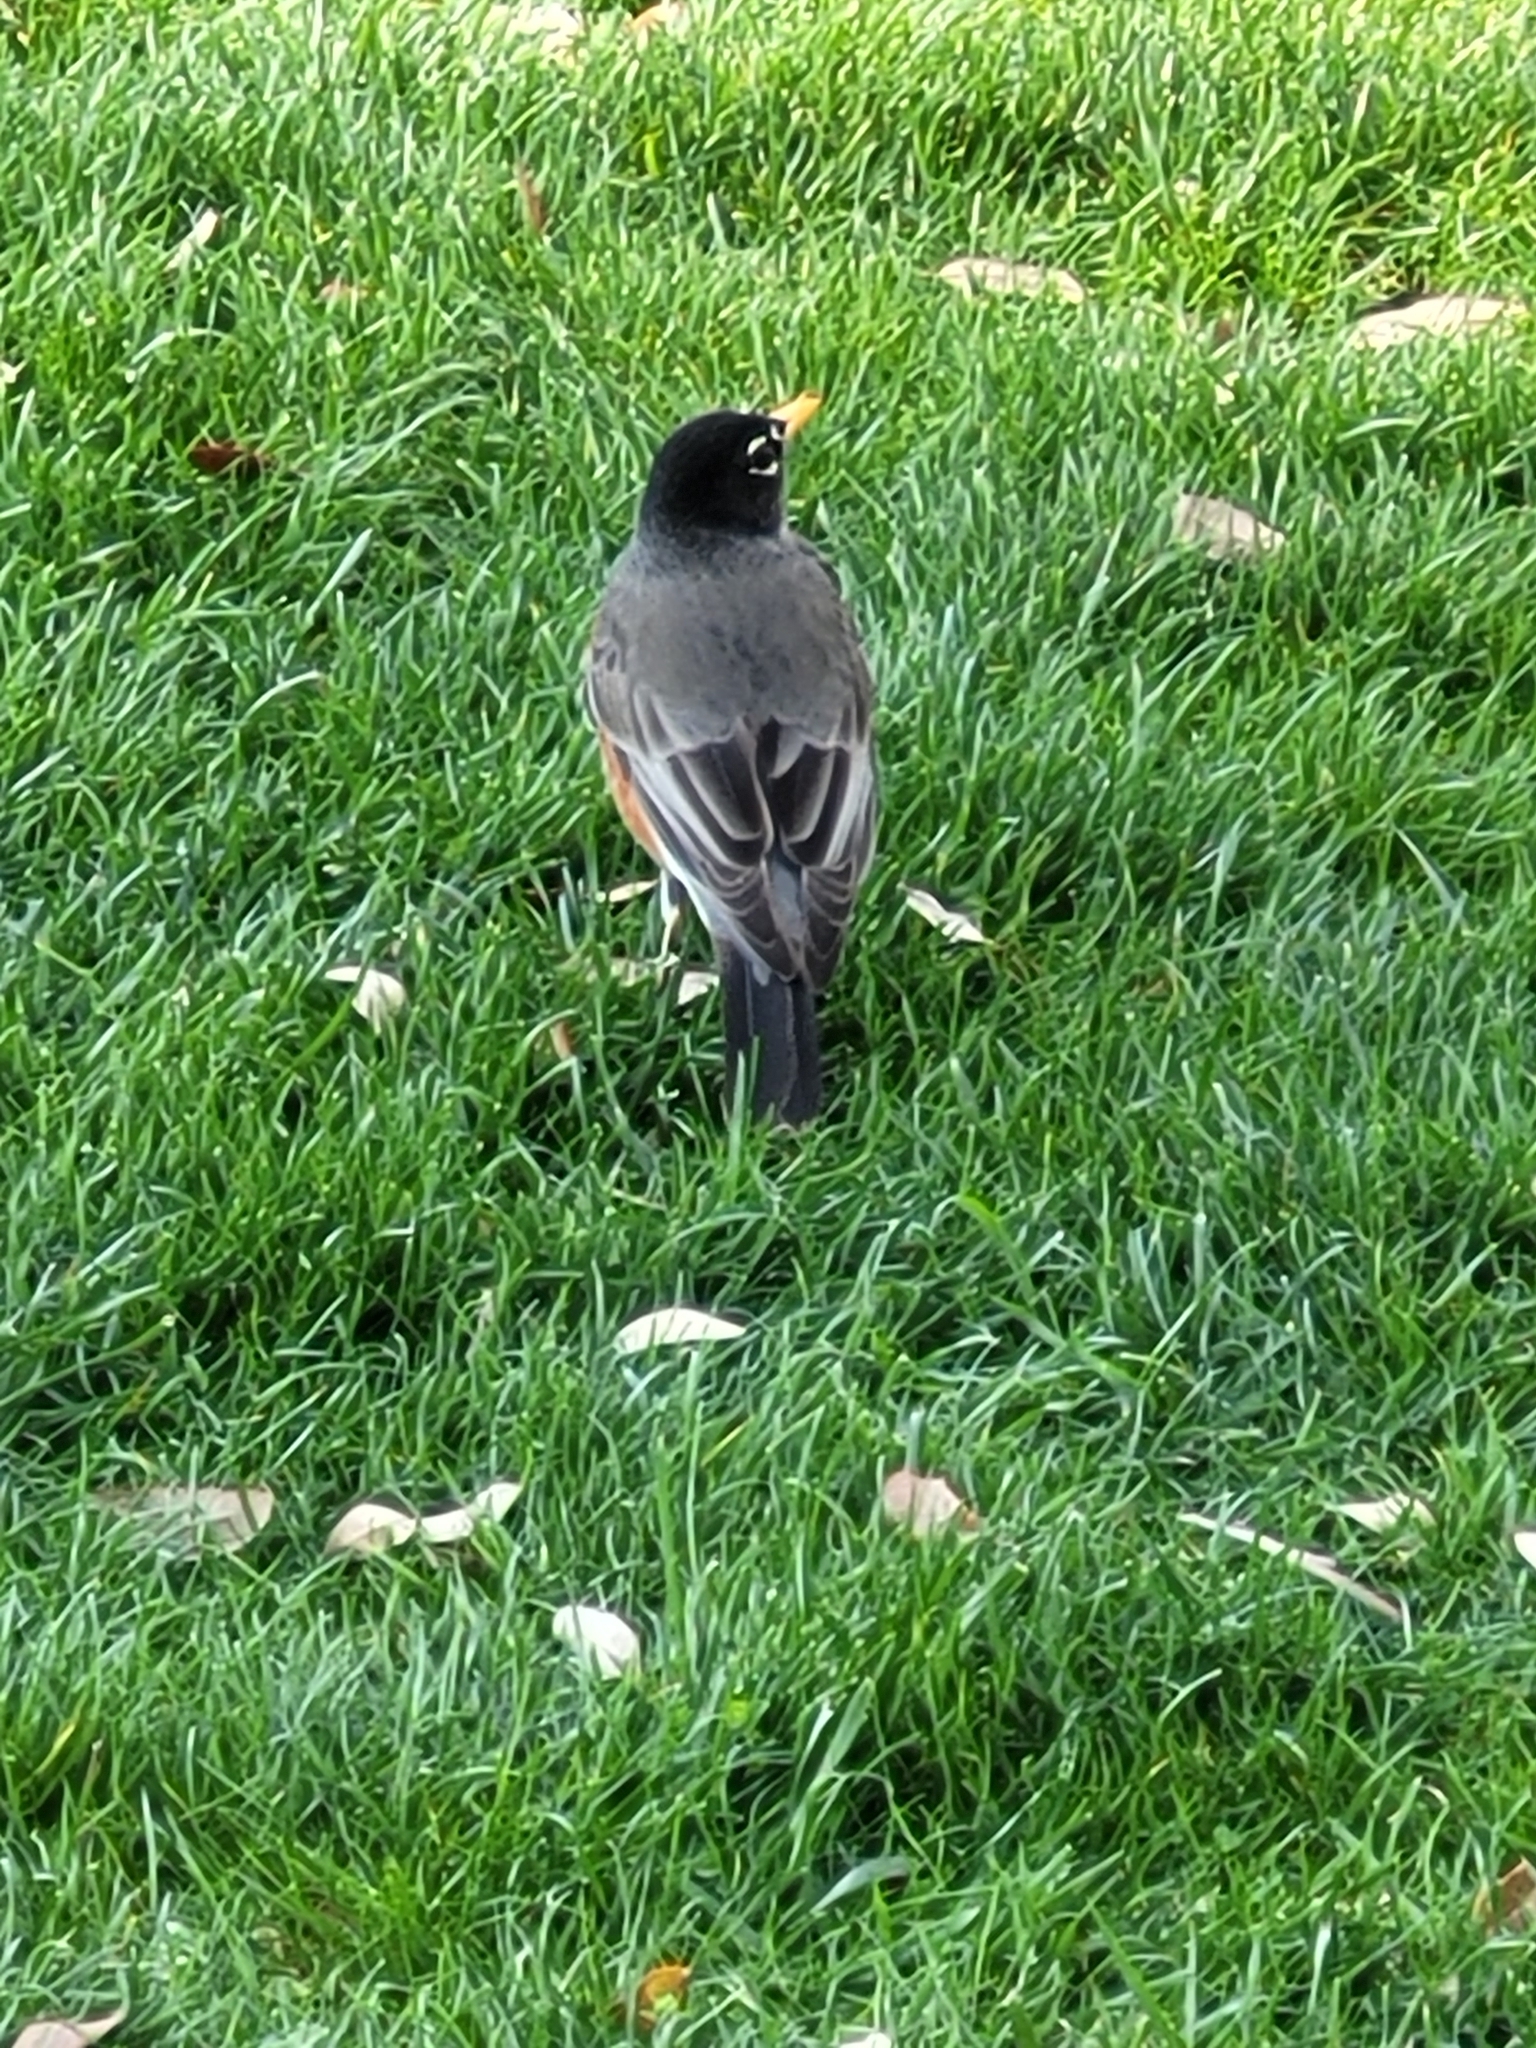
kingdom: Animalia
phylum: Chordata
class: Aves
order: Passeriformes
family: Turdidae
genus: Turdus
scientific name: Turdus migratorius
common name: American robin
